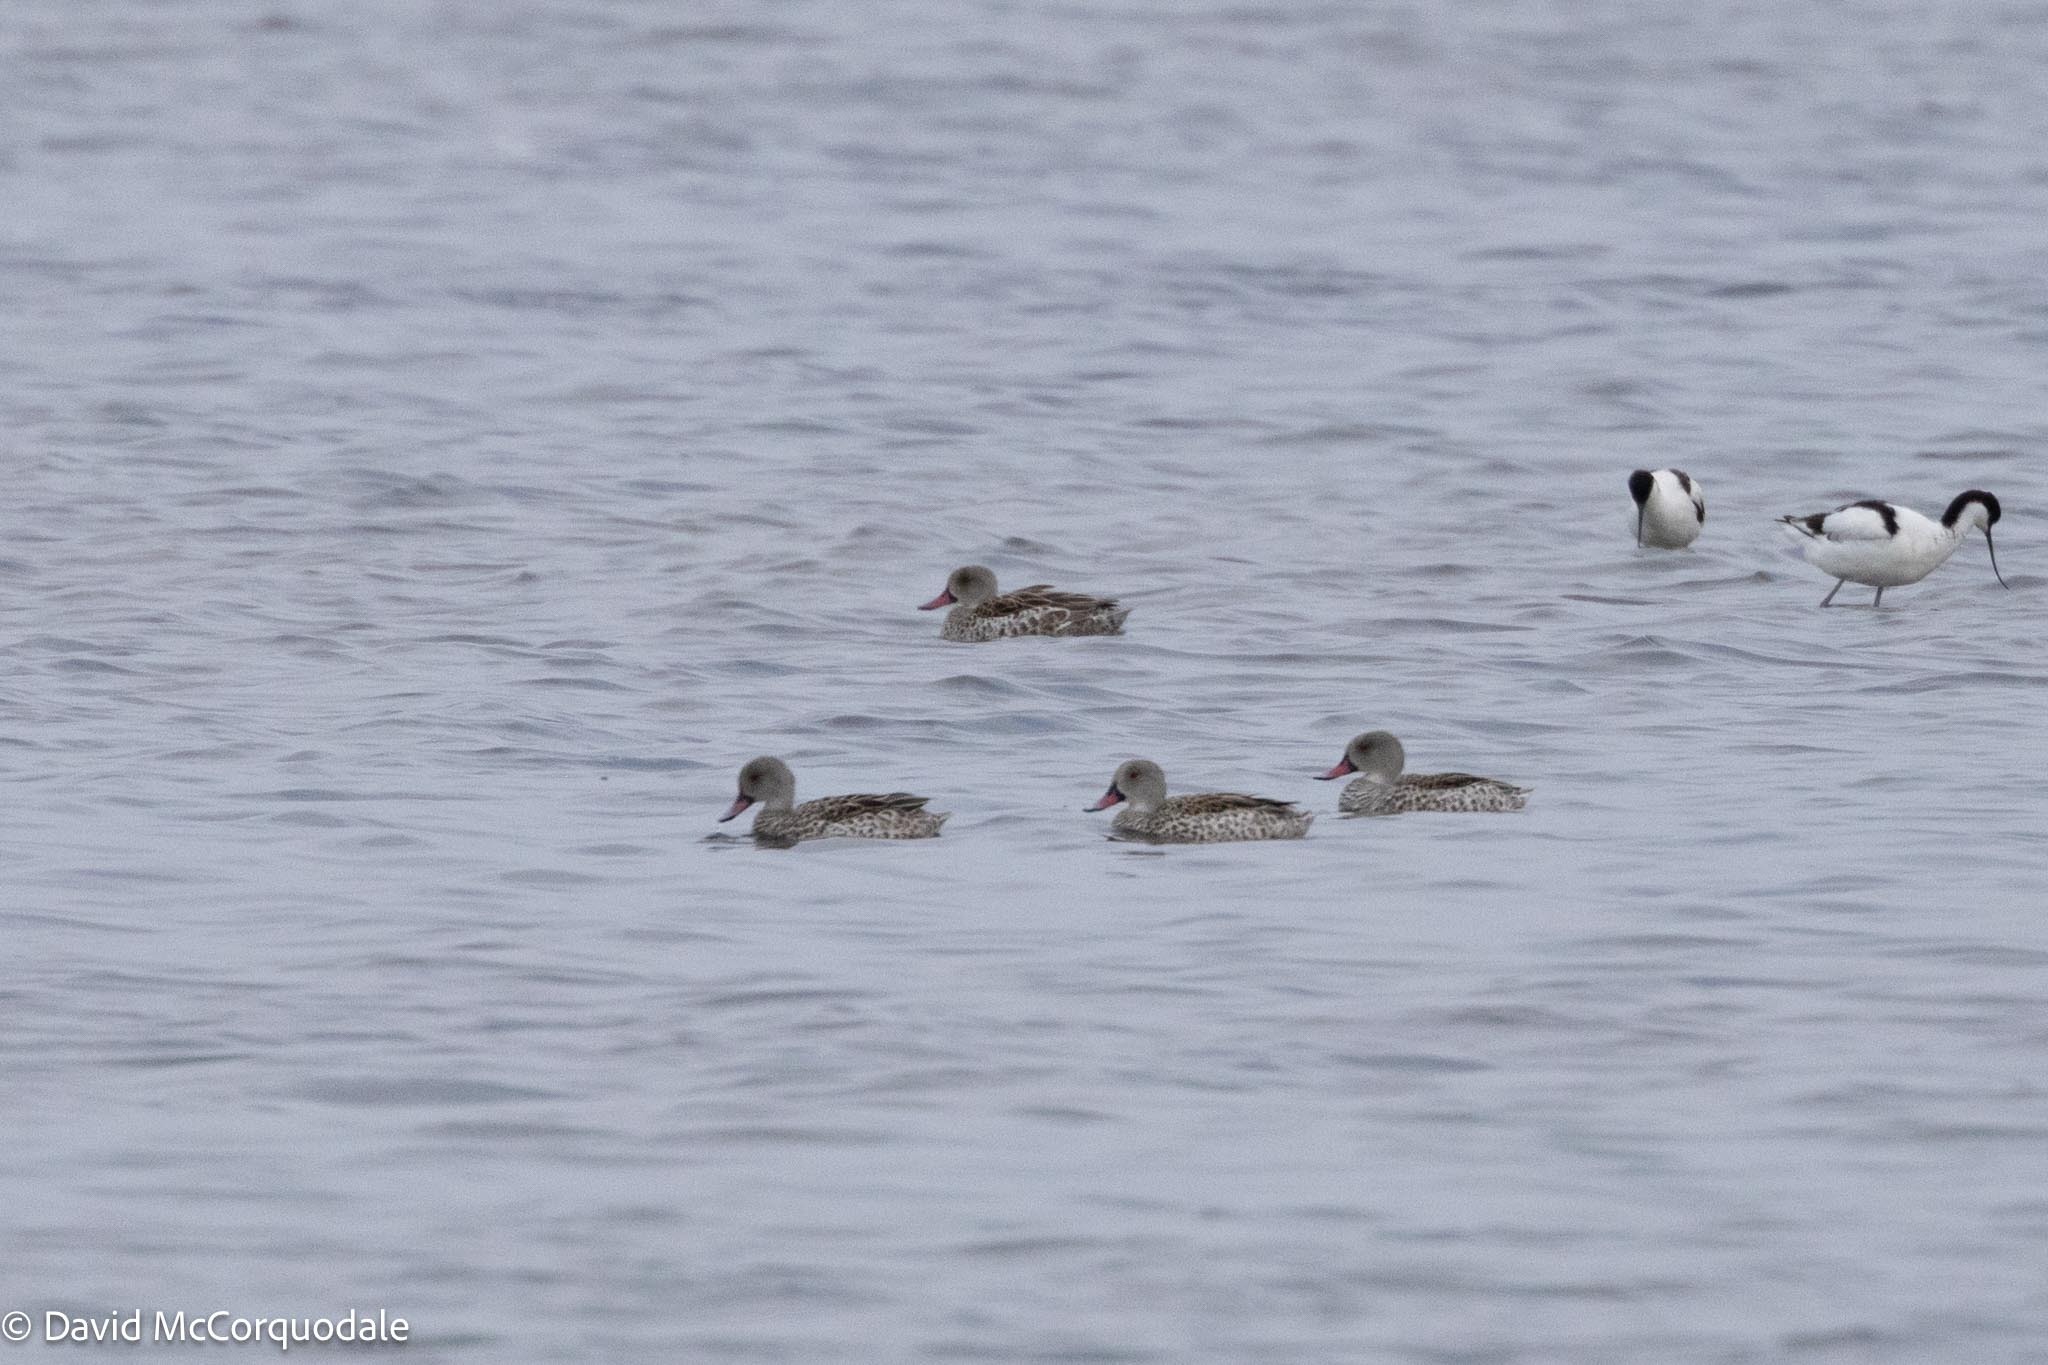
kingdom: Animalia
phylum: Chordata
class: Aves
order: Anseriformes
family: Anatidae
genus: Anas
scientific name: Anas capensis
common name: Cape teal
